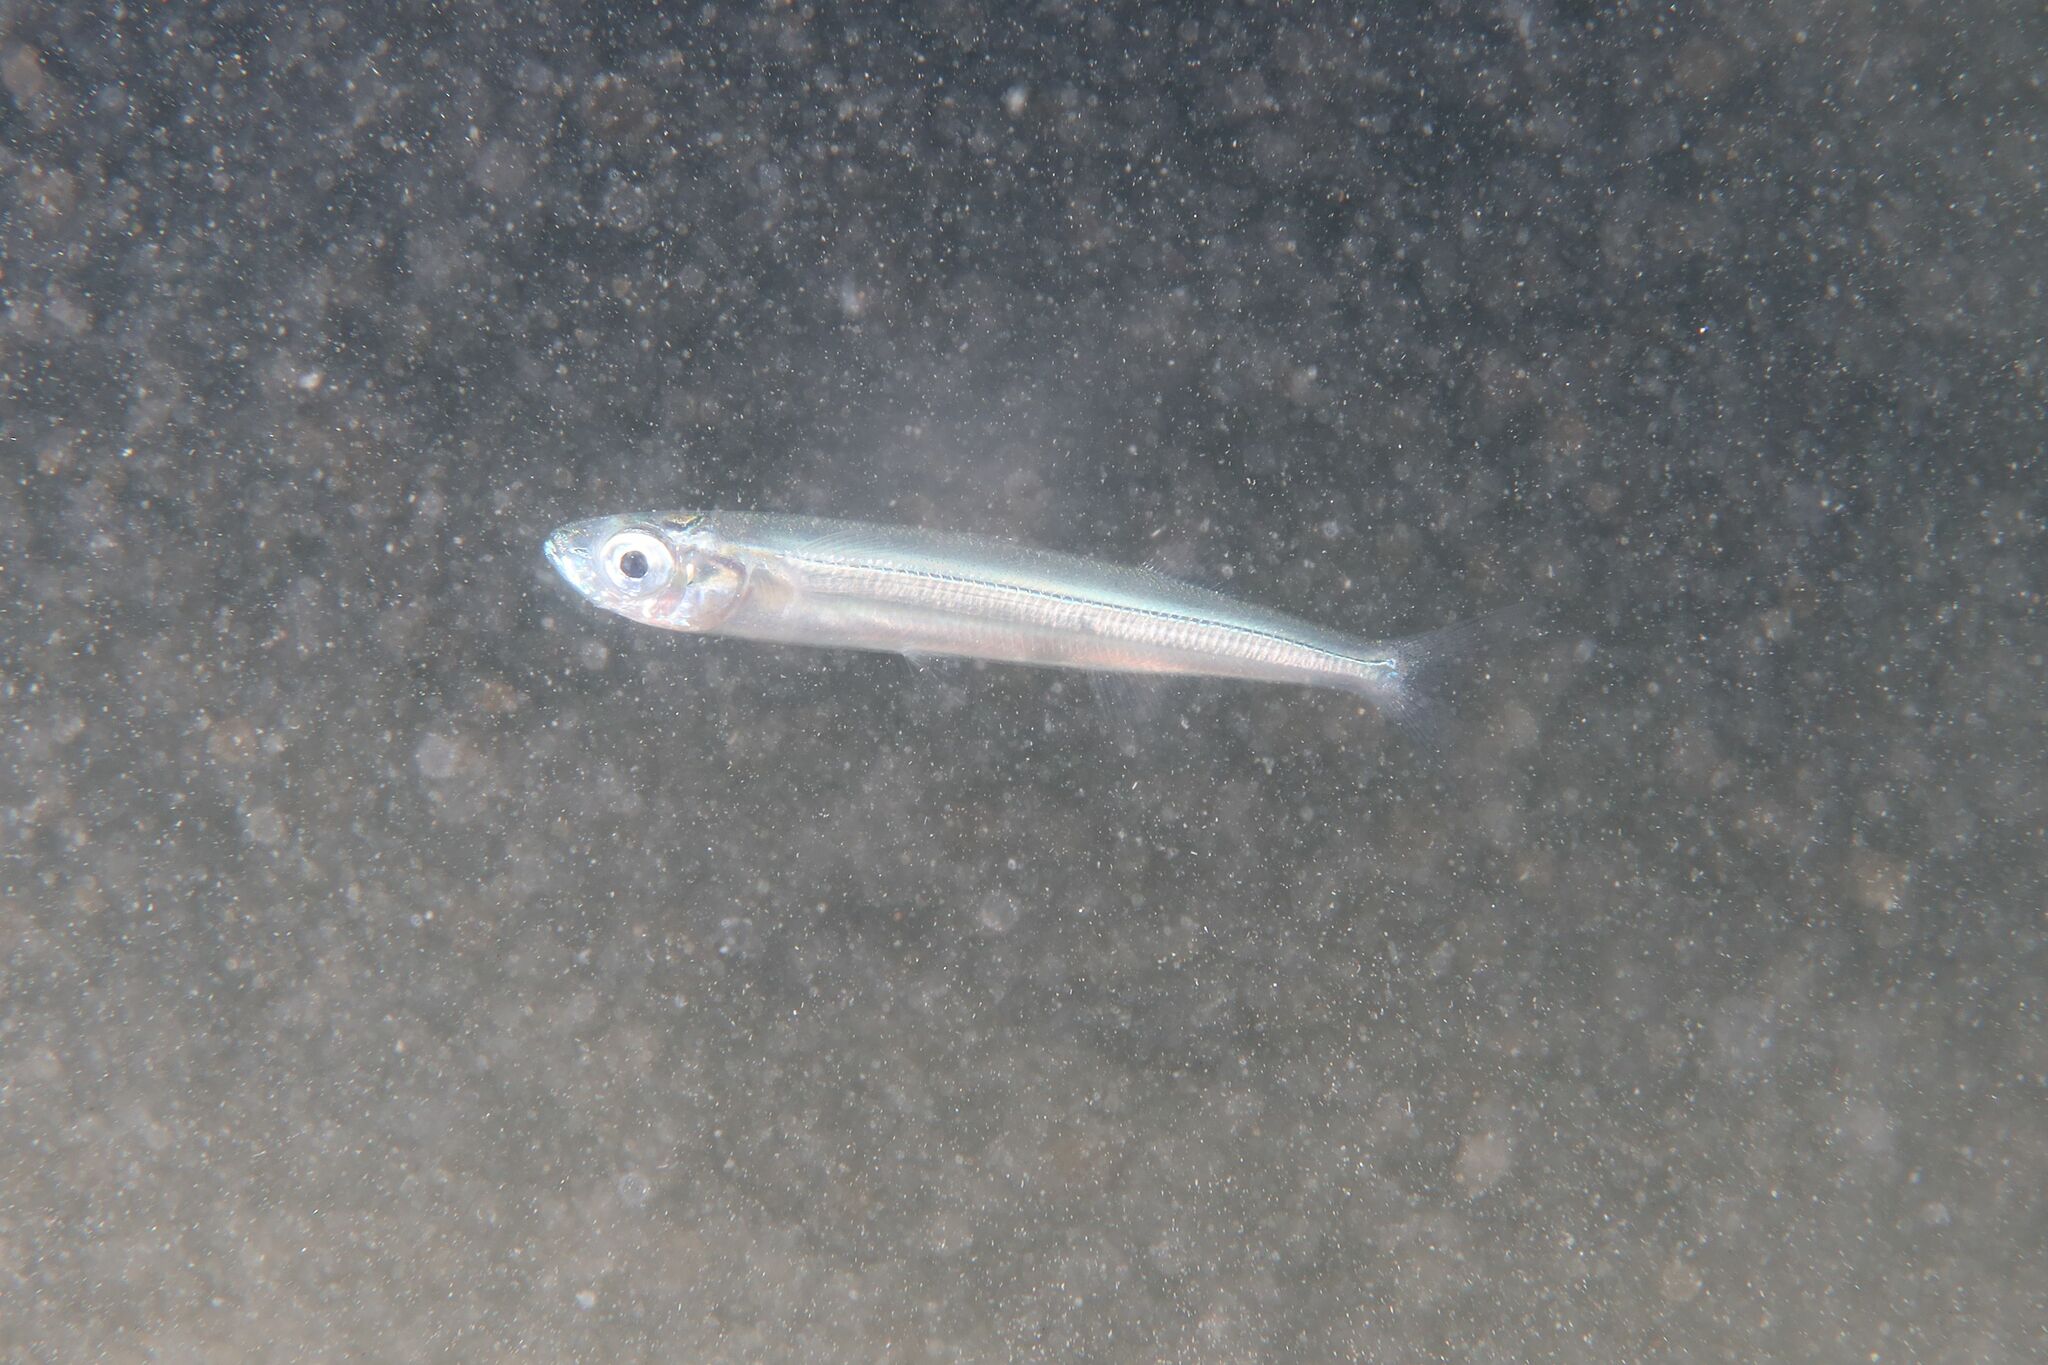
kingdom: Animalia
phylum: Chordata
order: Atheriniformes
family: Atherinidae
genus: Atherina
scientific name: Atherina hepsetus
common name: Mediterranean sand smelt
